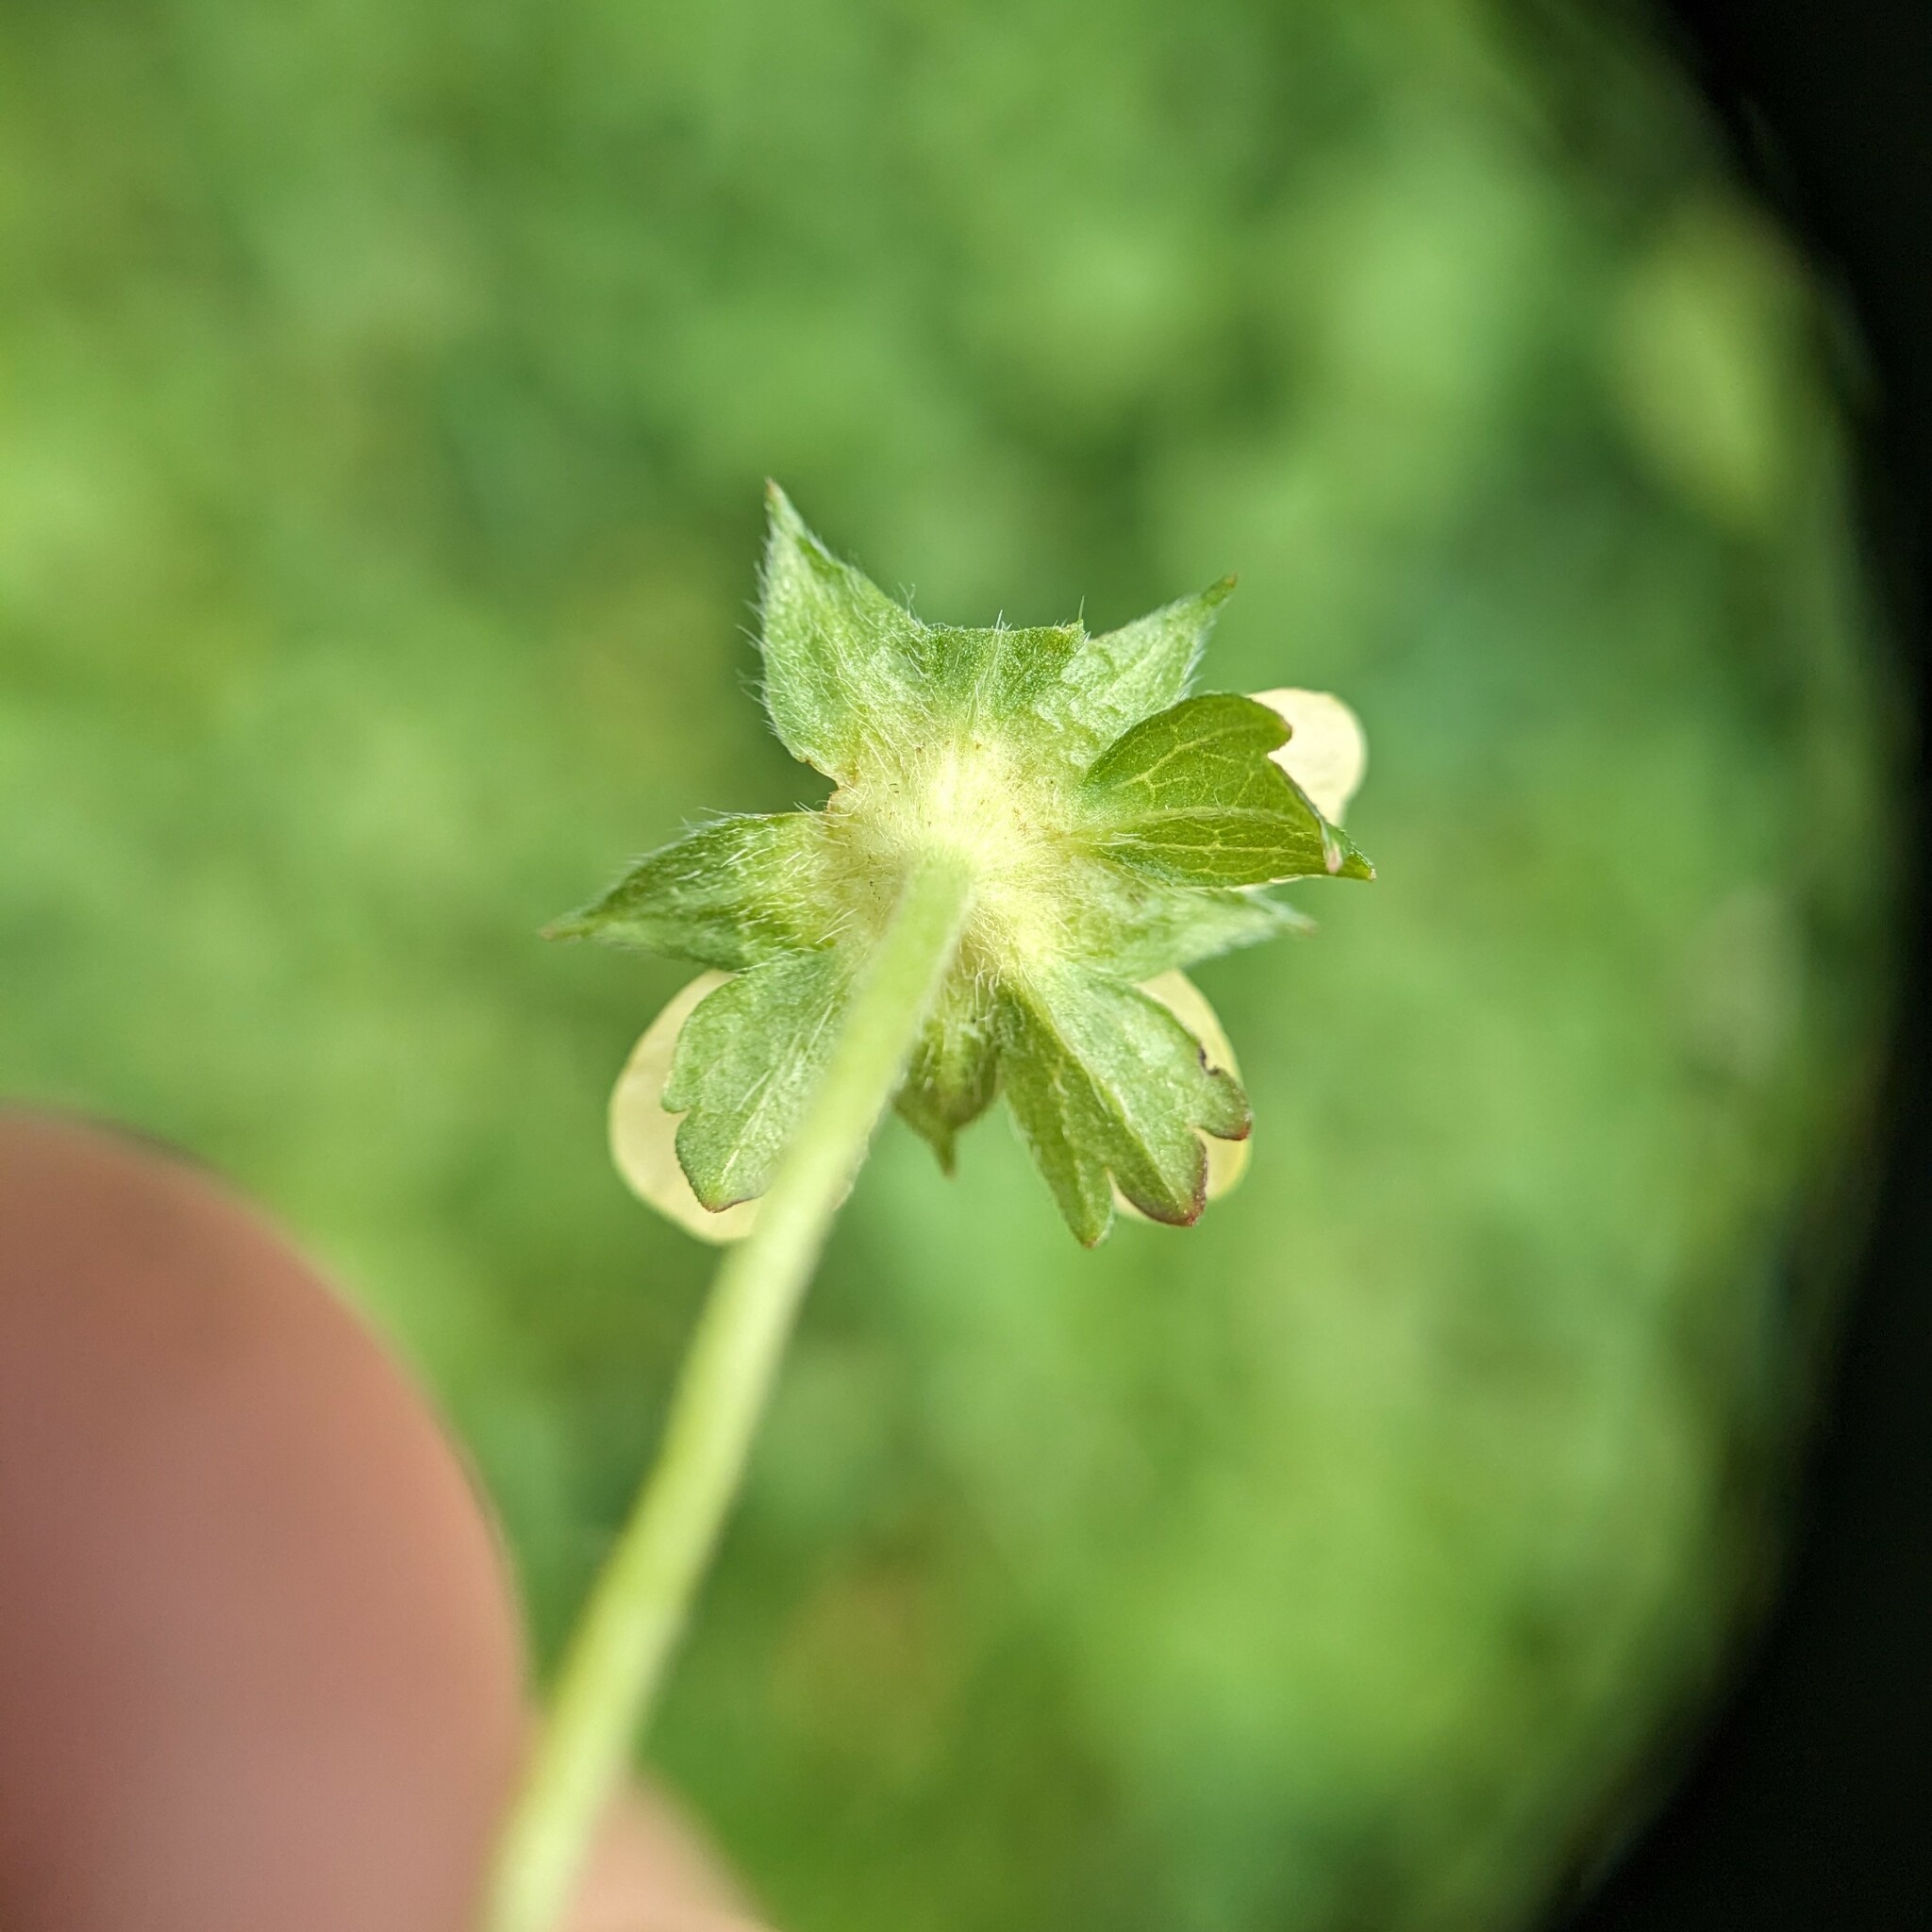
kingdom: Plantae
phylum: Tracheophyta
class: Magnoliopsida
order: Rosales
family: Rosaceae
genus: Potentilla
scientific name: Potentilla indica
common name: Yellow-flowered strawberry
